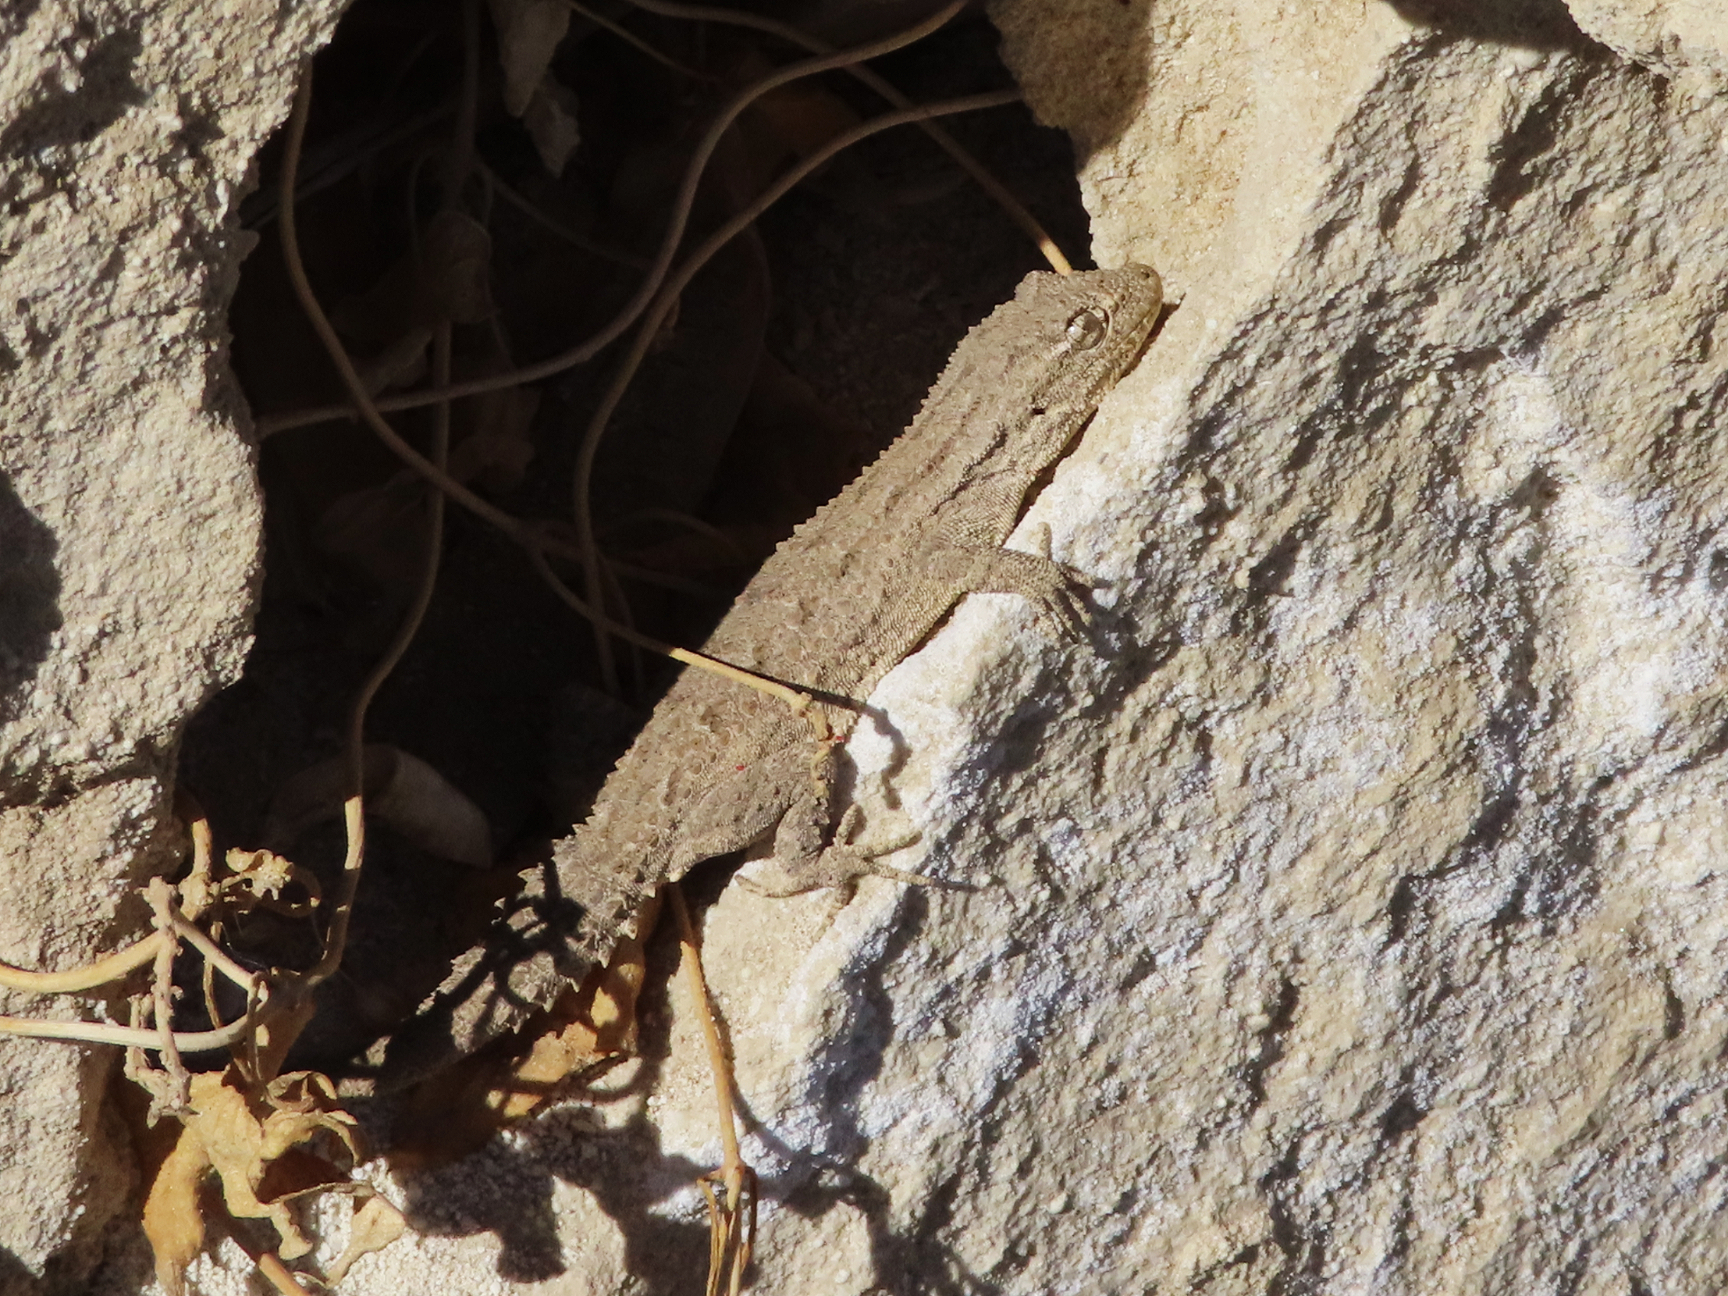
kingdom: Animalia
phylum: Chordata
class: Squamata
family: Gekkonidae
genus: Mediodactylus
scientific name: Mediodactylus russowii
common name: Grey thin-toed gecko
